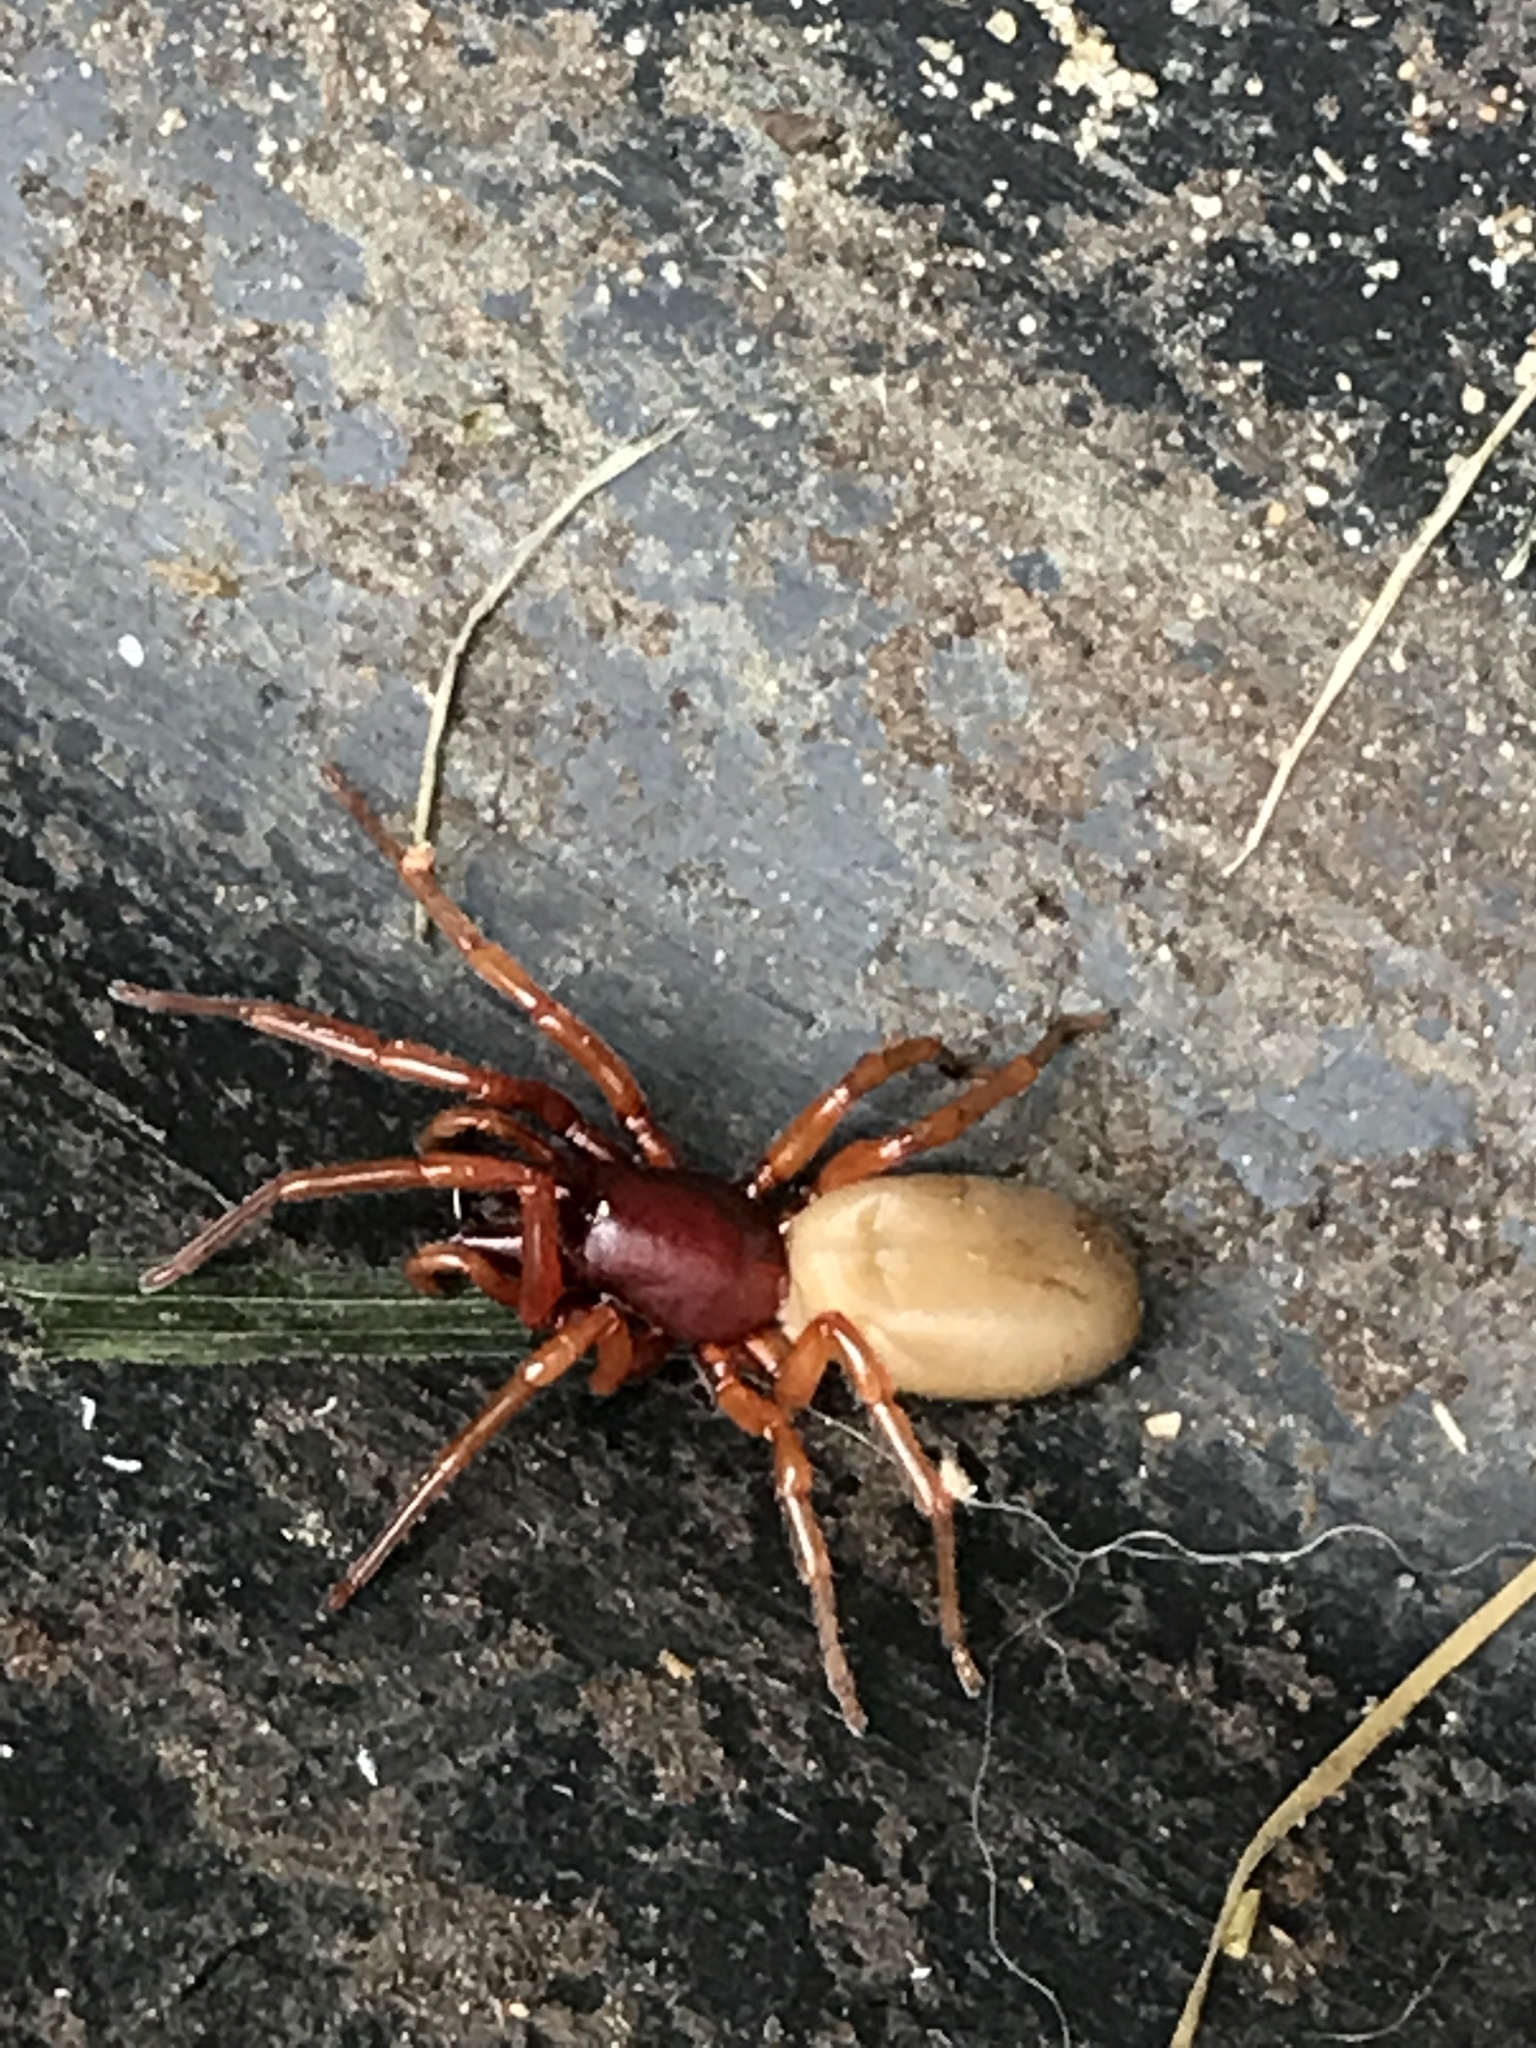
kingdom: Animalia
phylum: Arthropoda
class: Arachnida
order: Araneae
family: Dysderidae
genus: Dysdera
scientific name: Dysdera crocata
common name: Woodlouse spider
